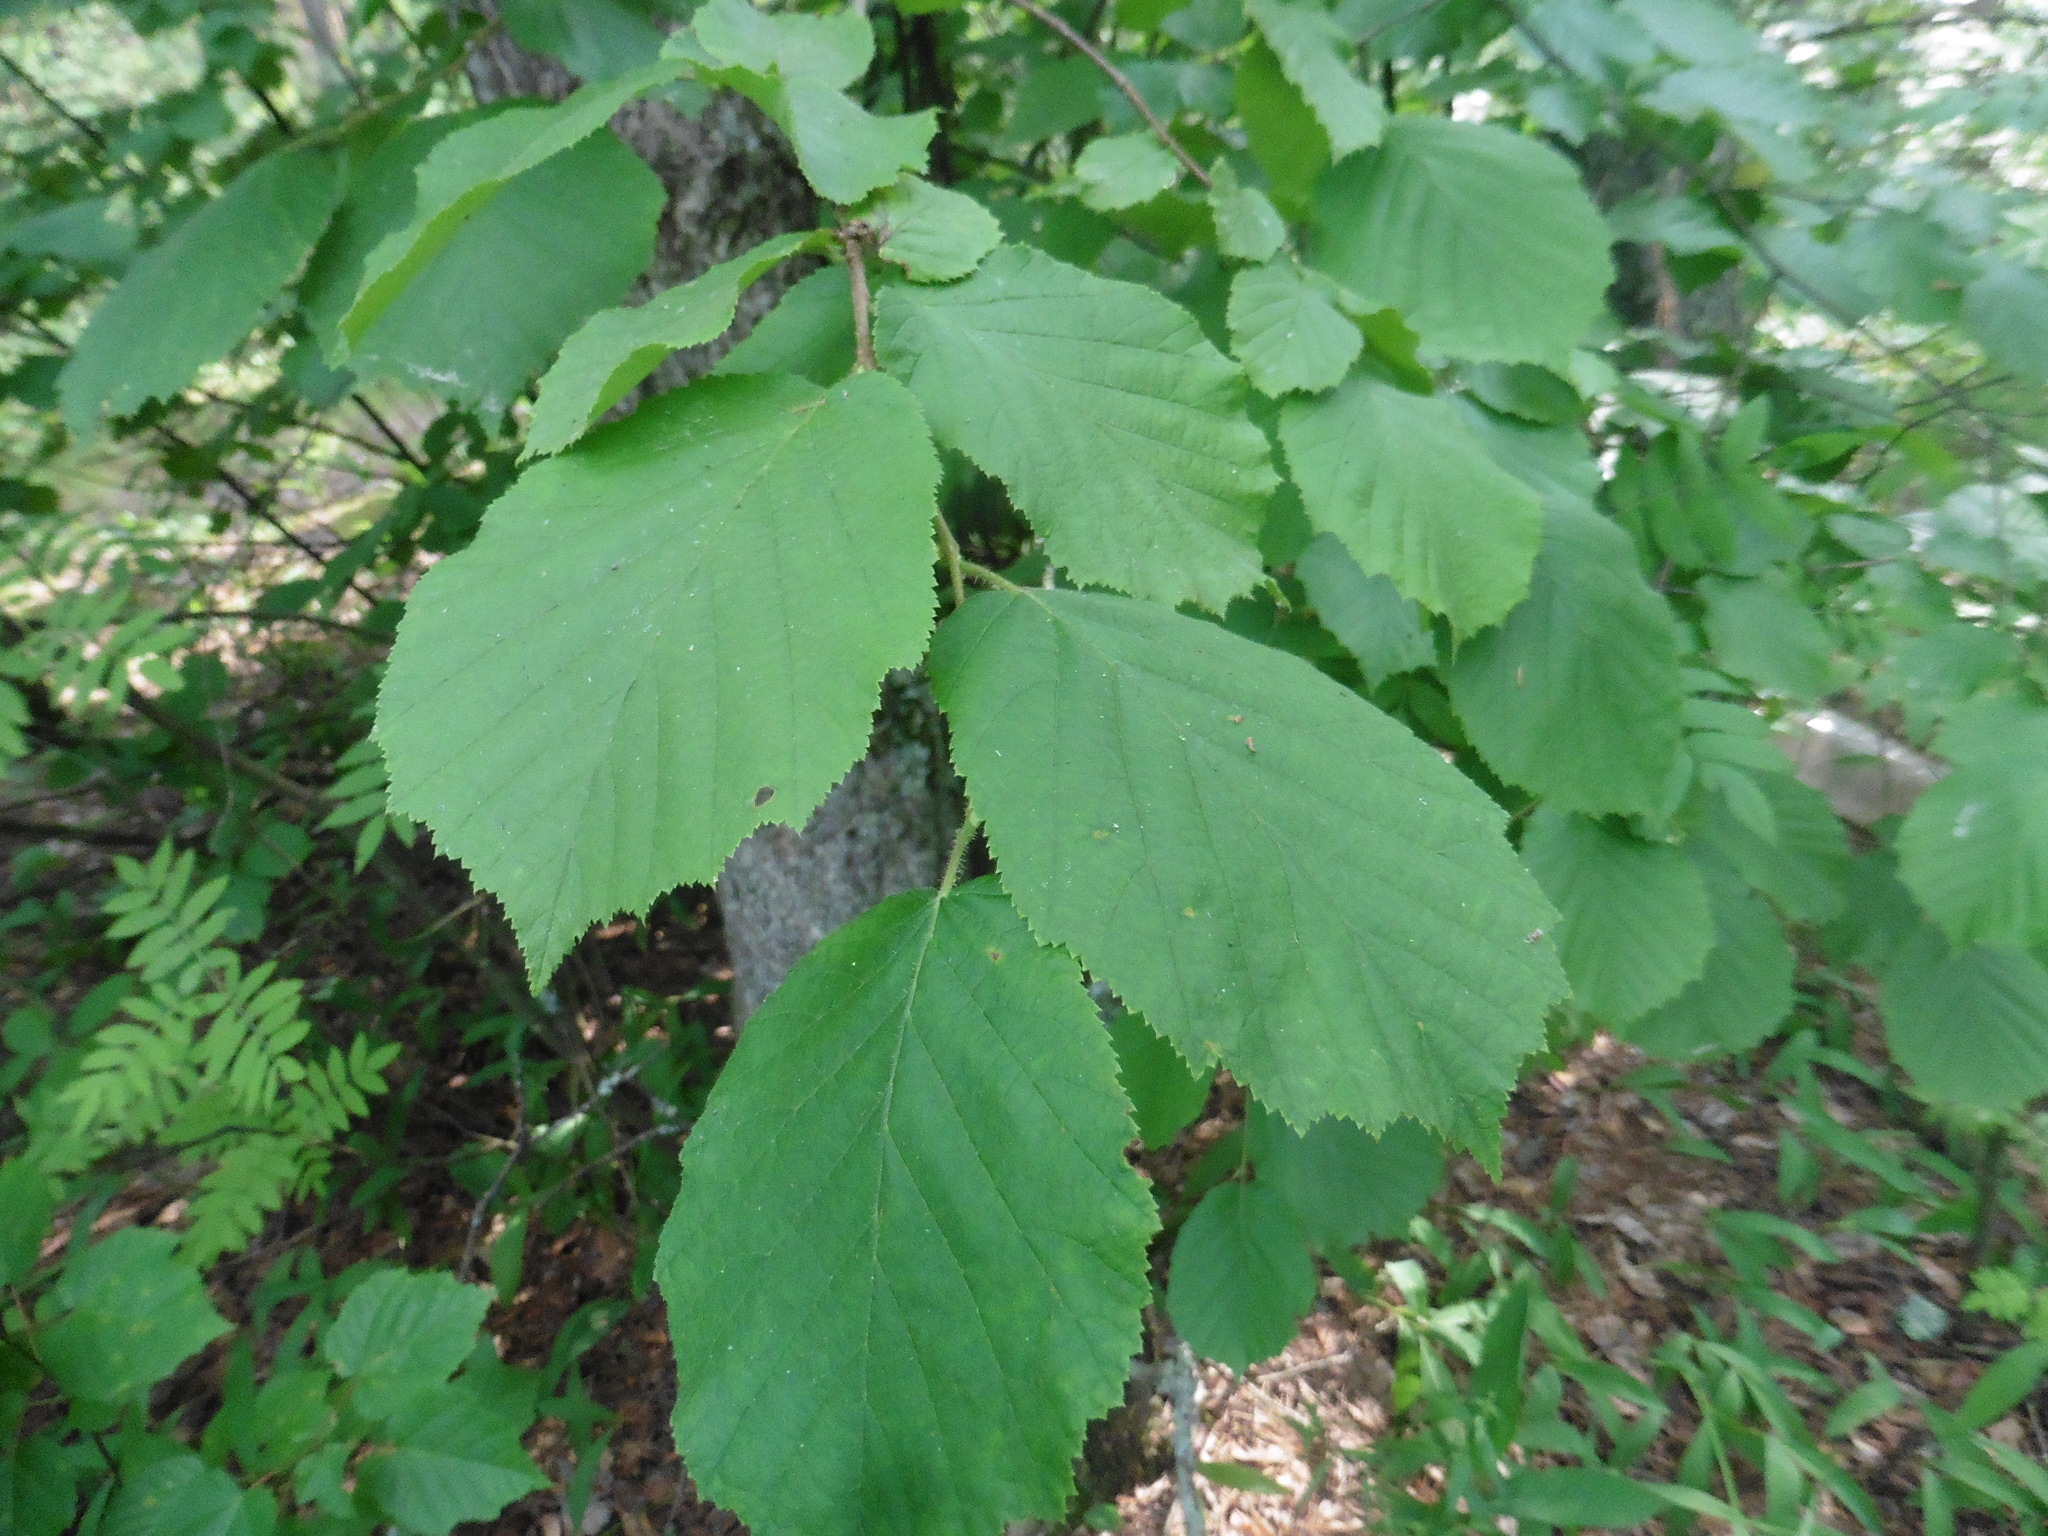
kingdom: Plantae
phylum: Tracheophyta
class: Magnoliopsida
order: Fagales
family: Betulaceae
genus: Corylus
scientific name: Corylus avellana
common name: European hazel
